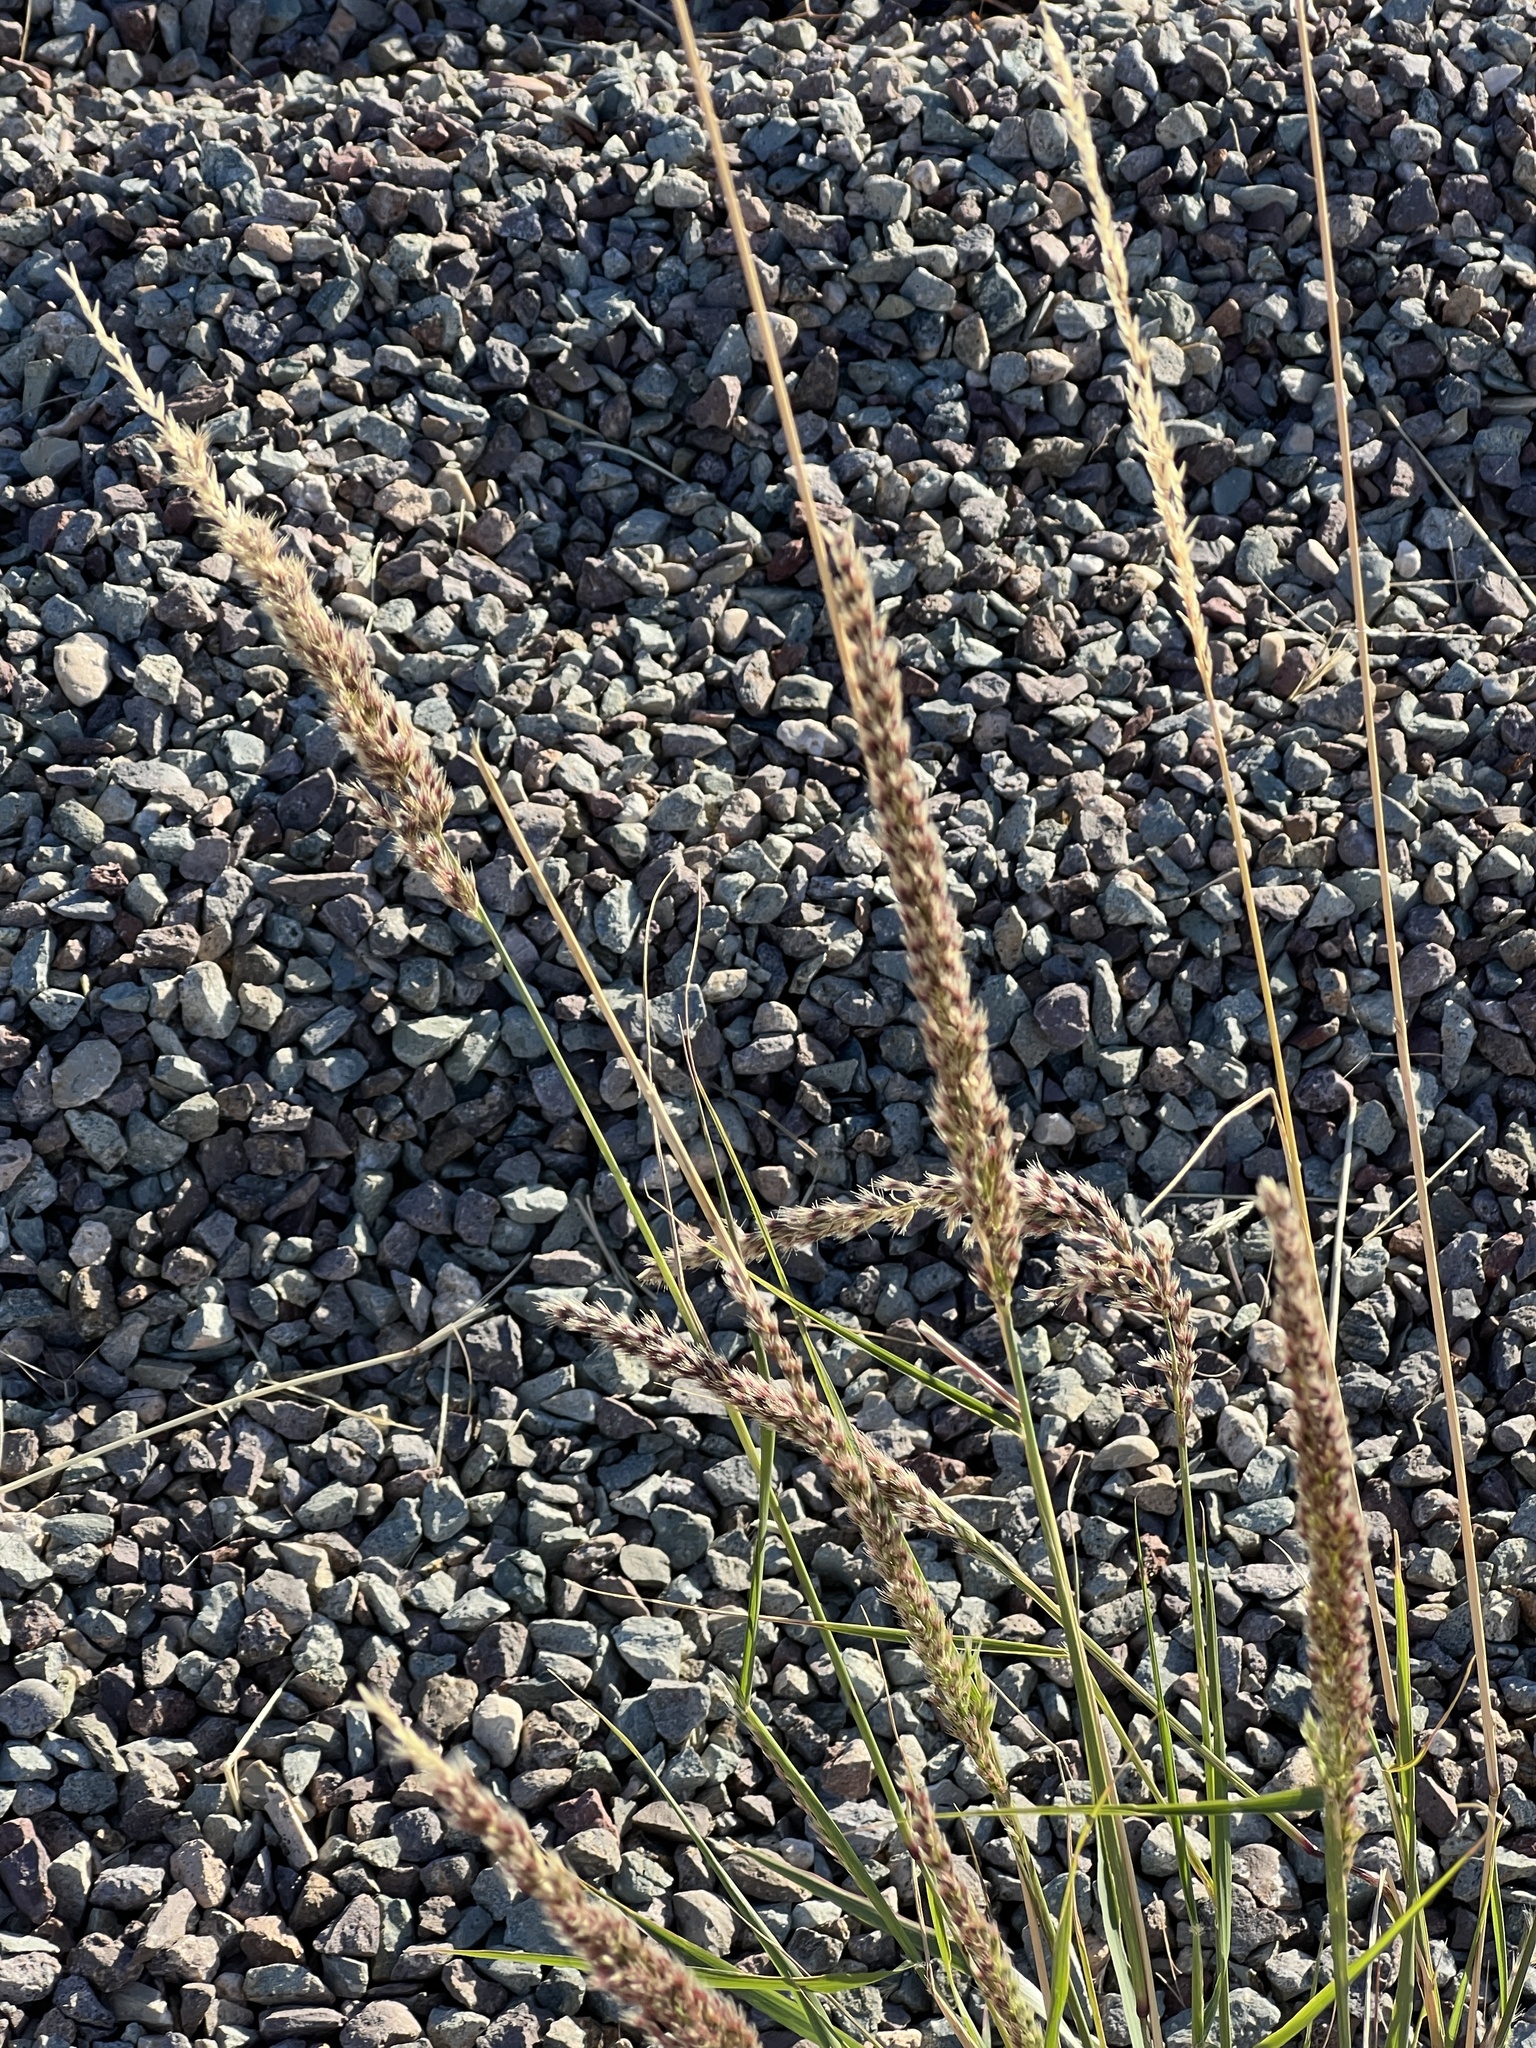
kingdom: Plantae
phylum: Tracheophyta
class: Liliopsida
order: Poales
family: Poaceae
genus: Pappophorum
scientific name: Pappophorum bicolor
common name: Pink pappus grass
